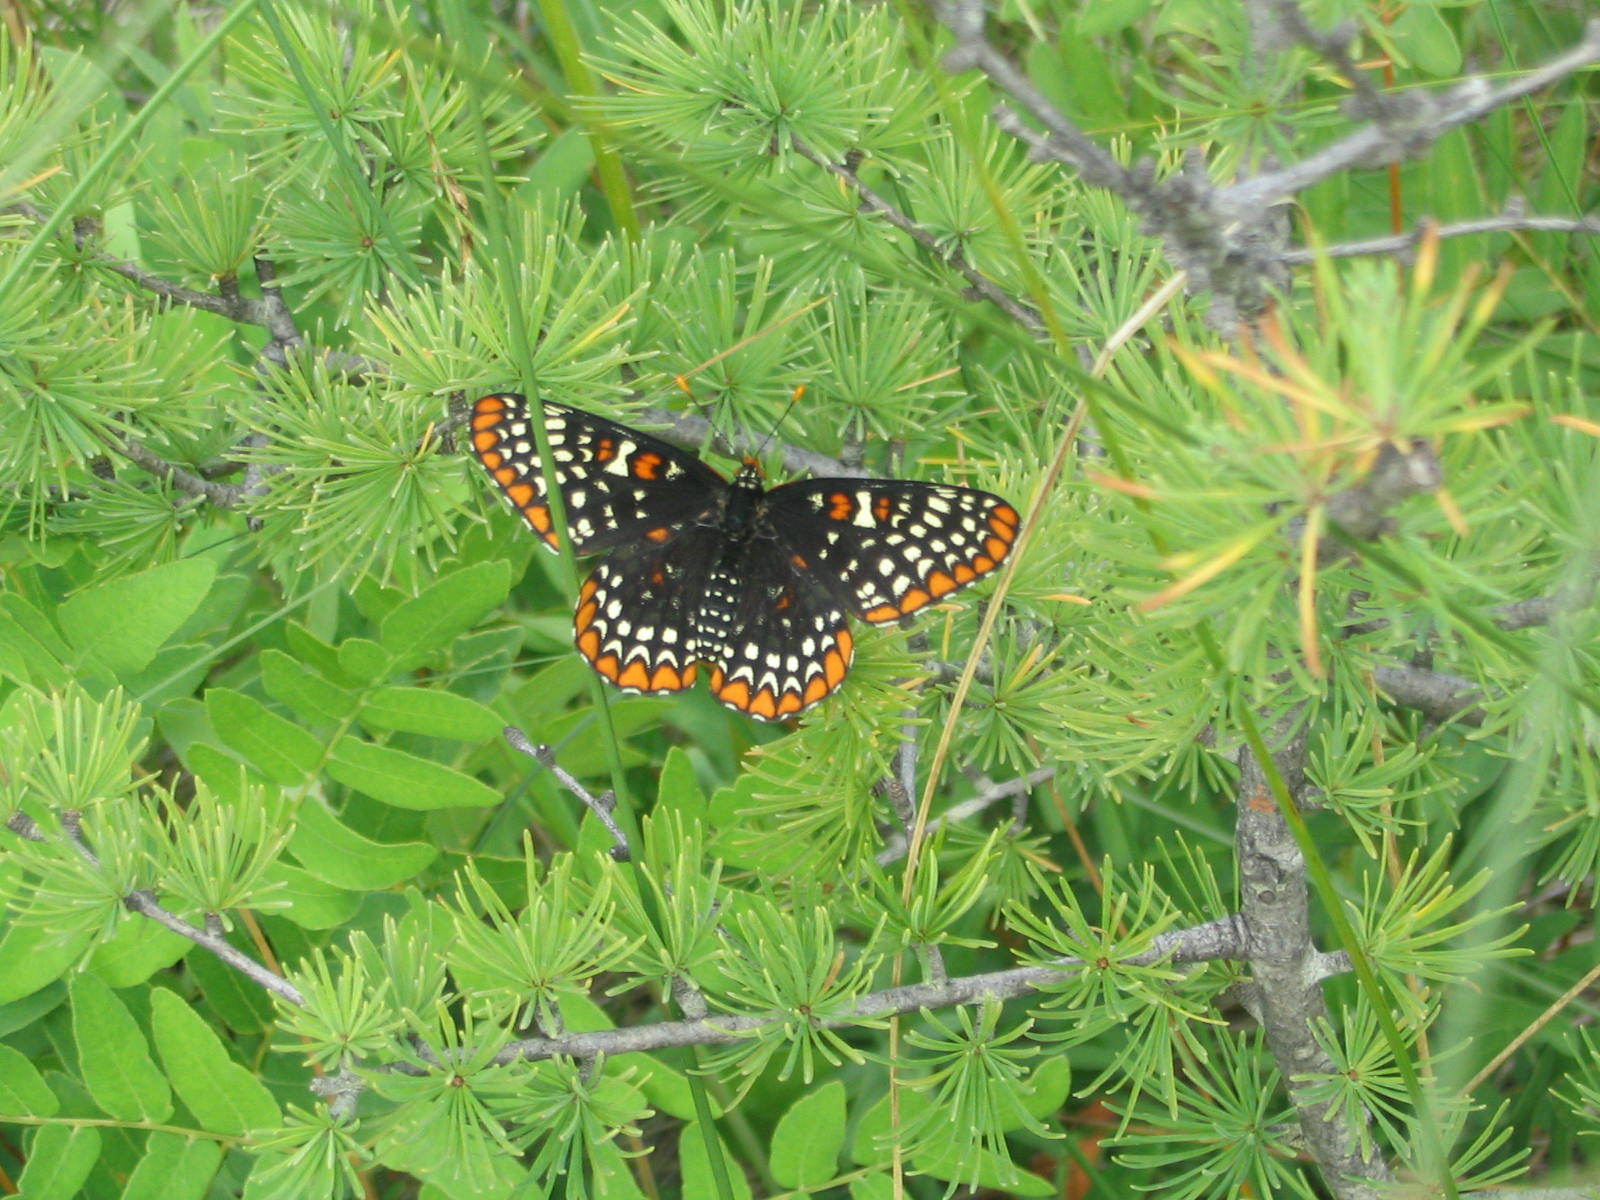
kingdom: Animalia
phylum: Arthropoda
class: Insecta
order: Lepidoptera
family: Nymphalidae
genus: Euphydryas
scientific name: Euphydryas phaeton
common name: Baltimore checkerspot
